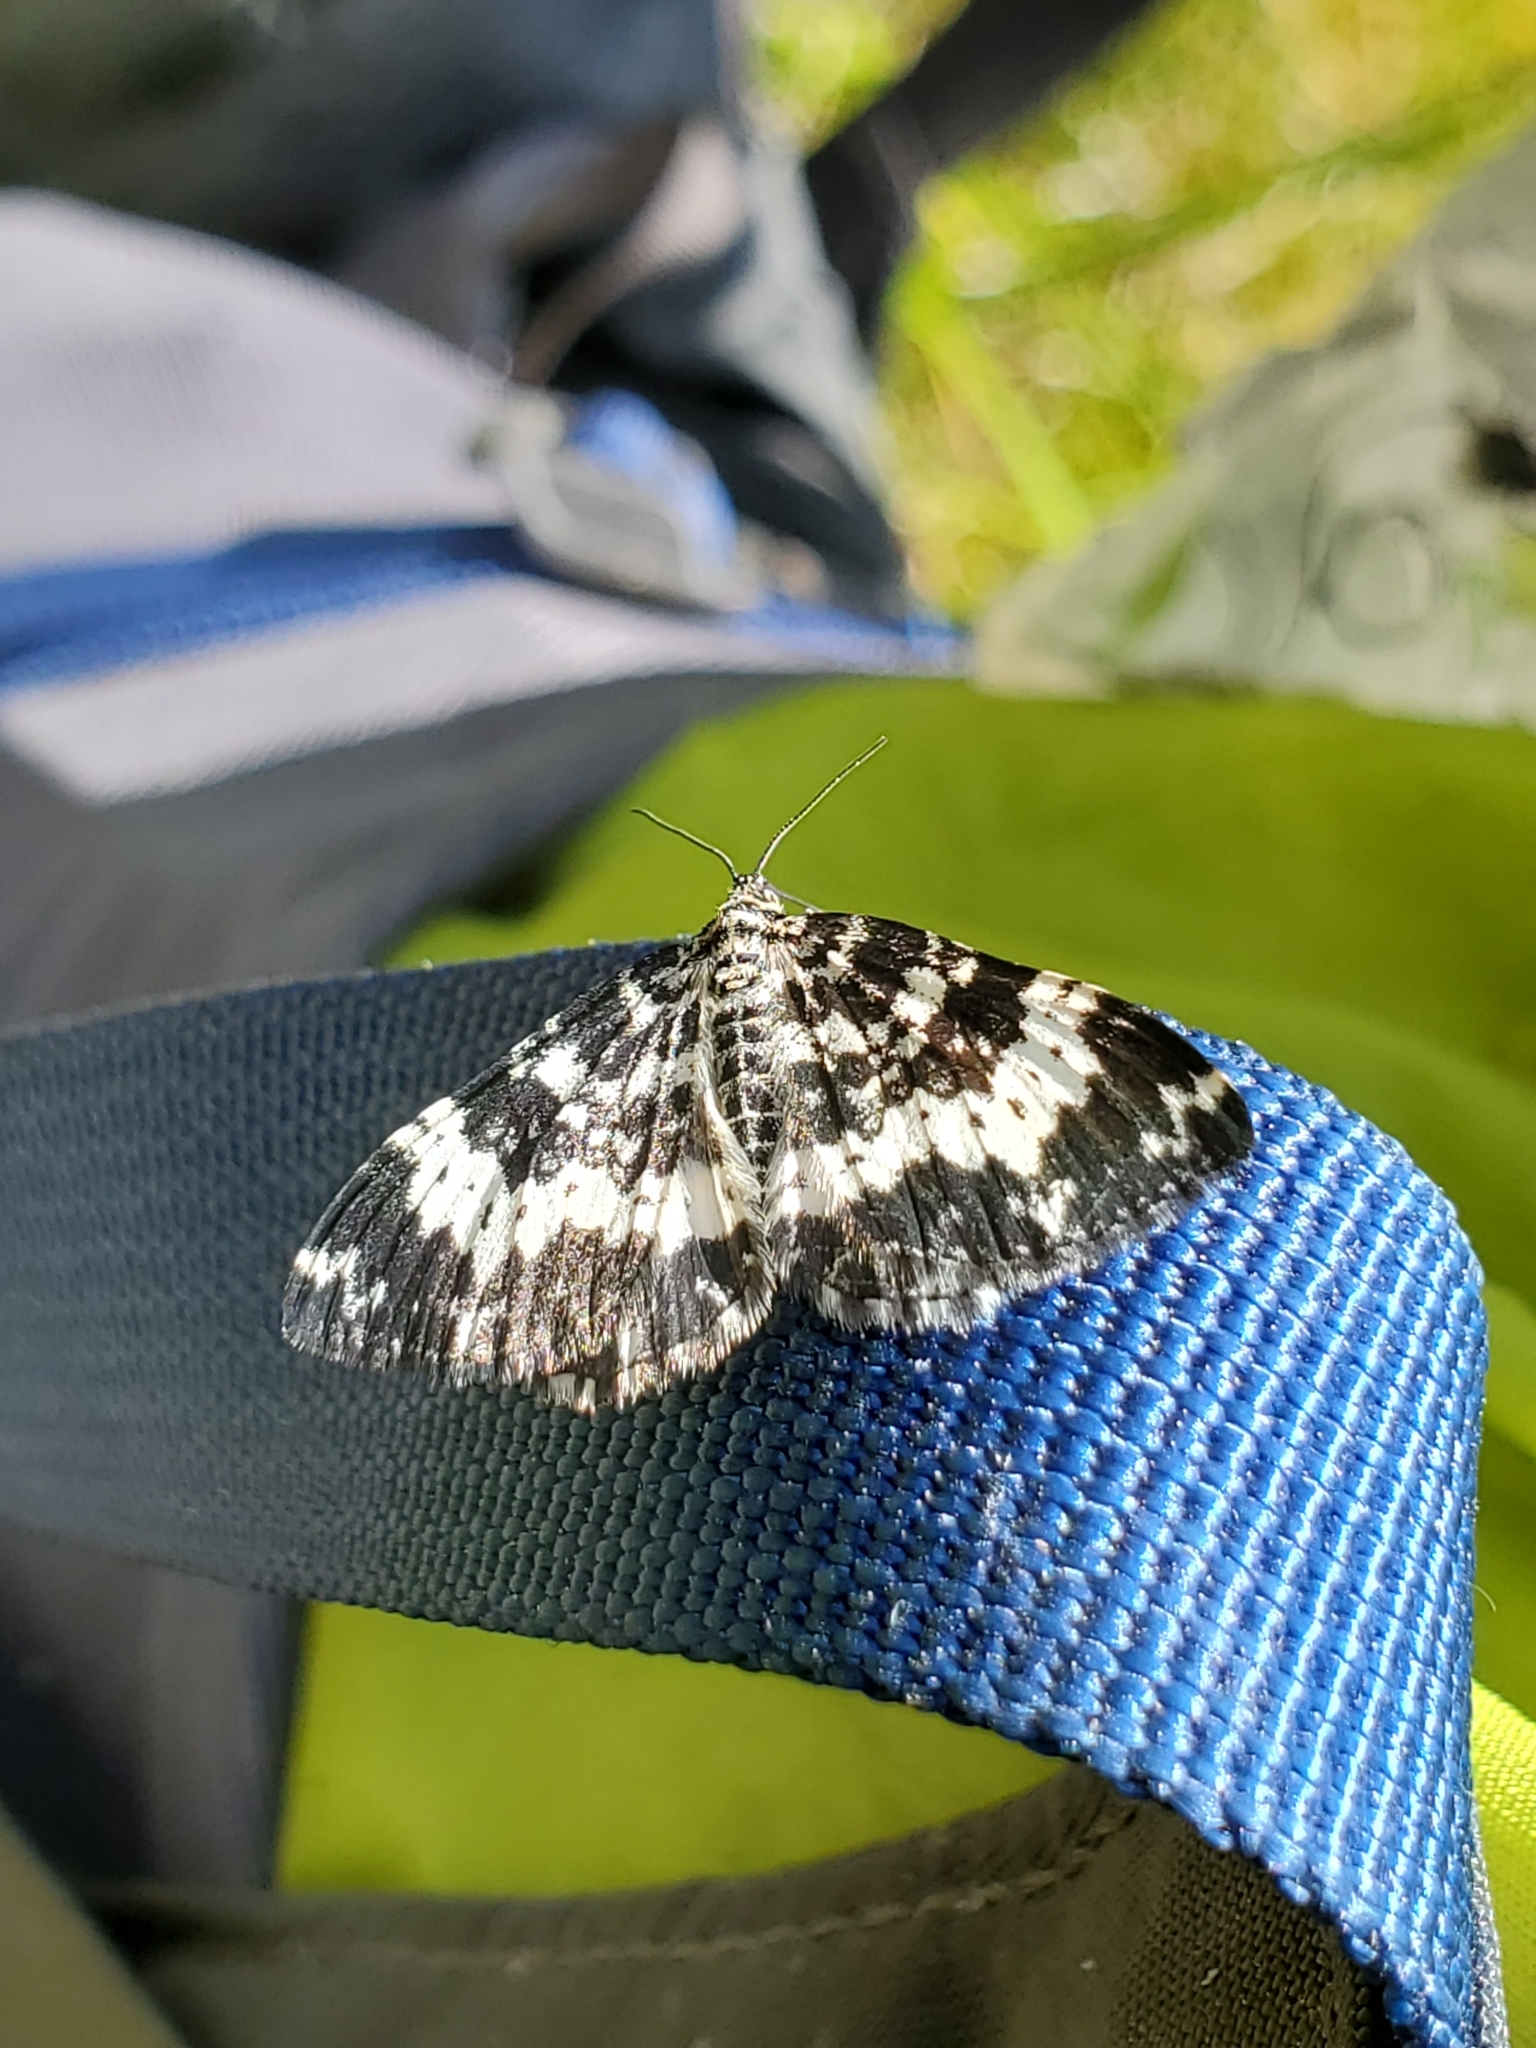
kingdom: Animalia
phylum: Arthropoda
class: Insecta
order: Lepidoptera
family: Geometridae
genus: Rheumaptera
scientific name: Rheumaptera
